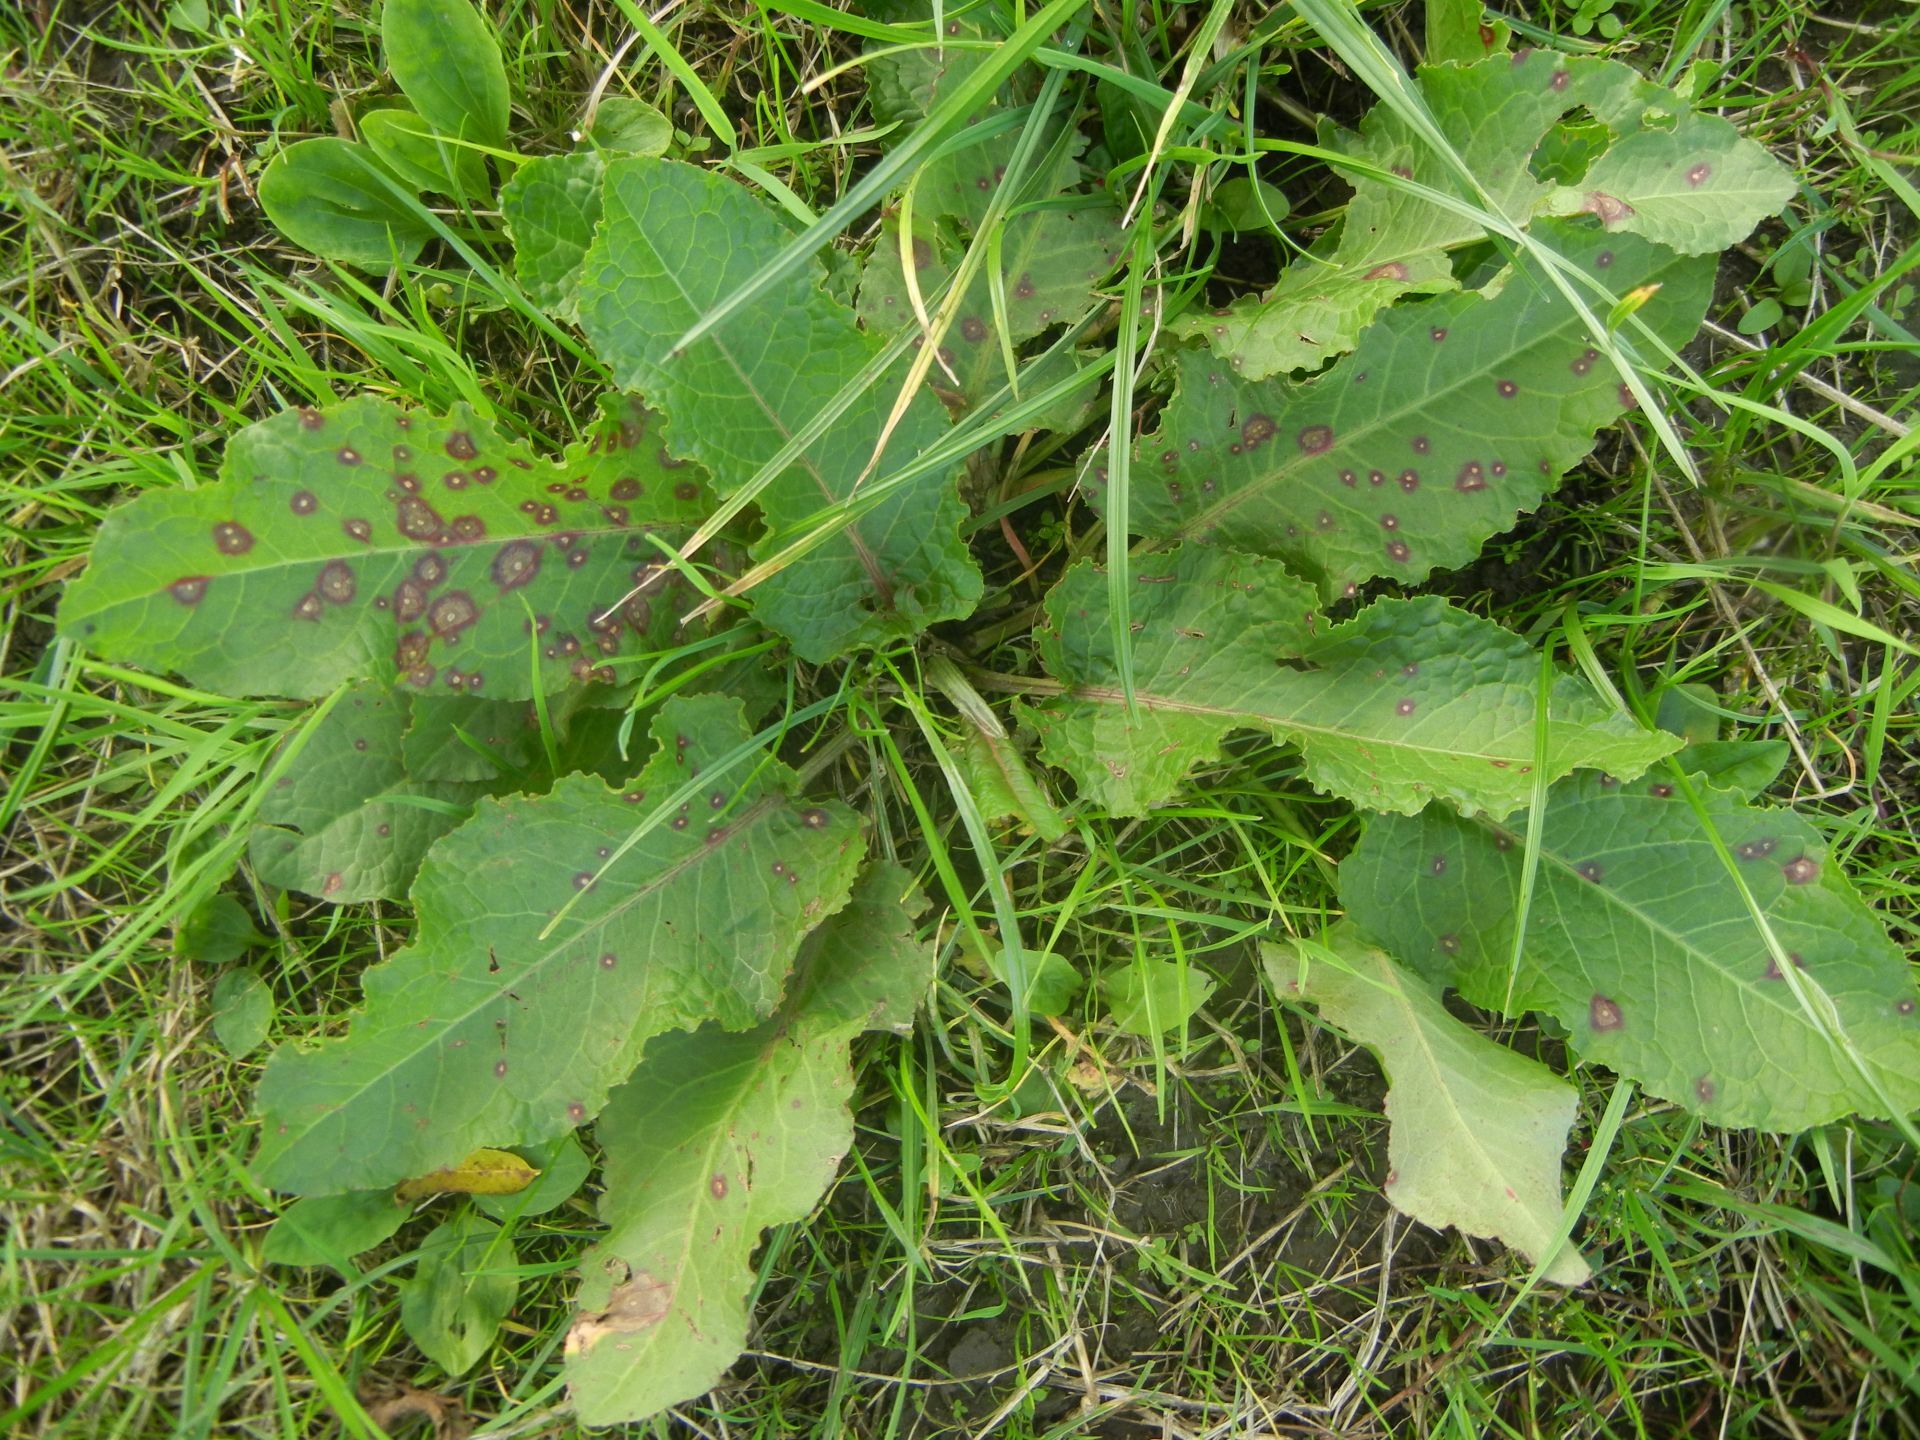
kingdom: Plantae
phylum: Tracheophyta
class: Magnoliopsida
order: Caryophyllales
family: Polygonaceae
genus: Rumex
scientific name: Rumex obtusifolius
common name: Bitter dock
